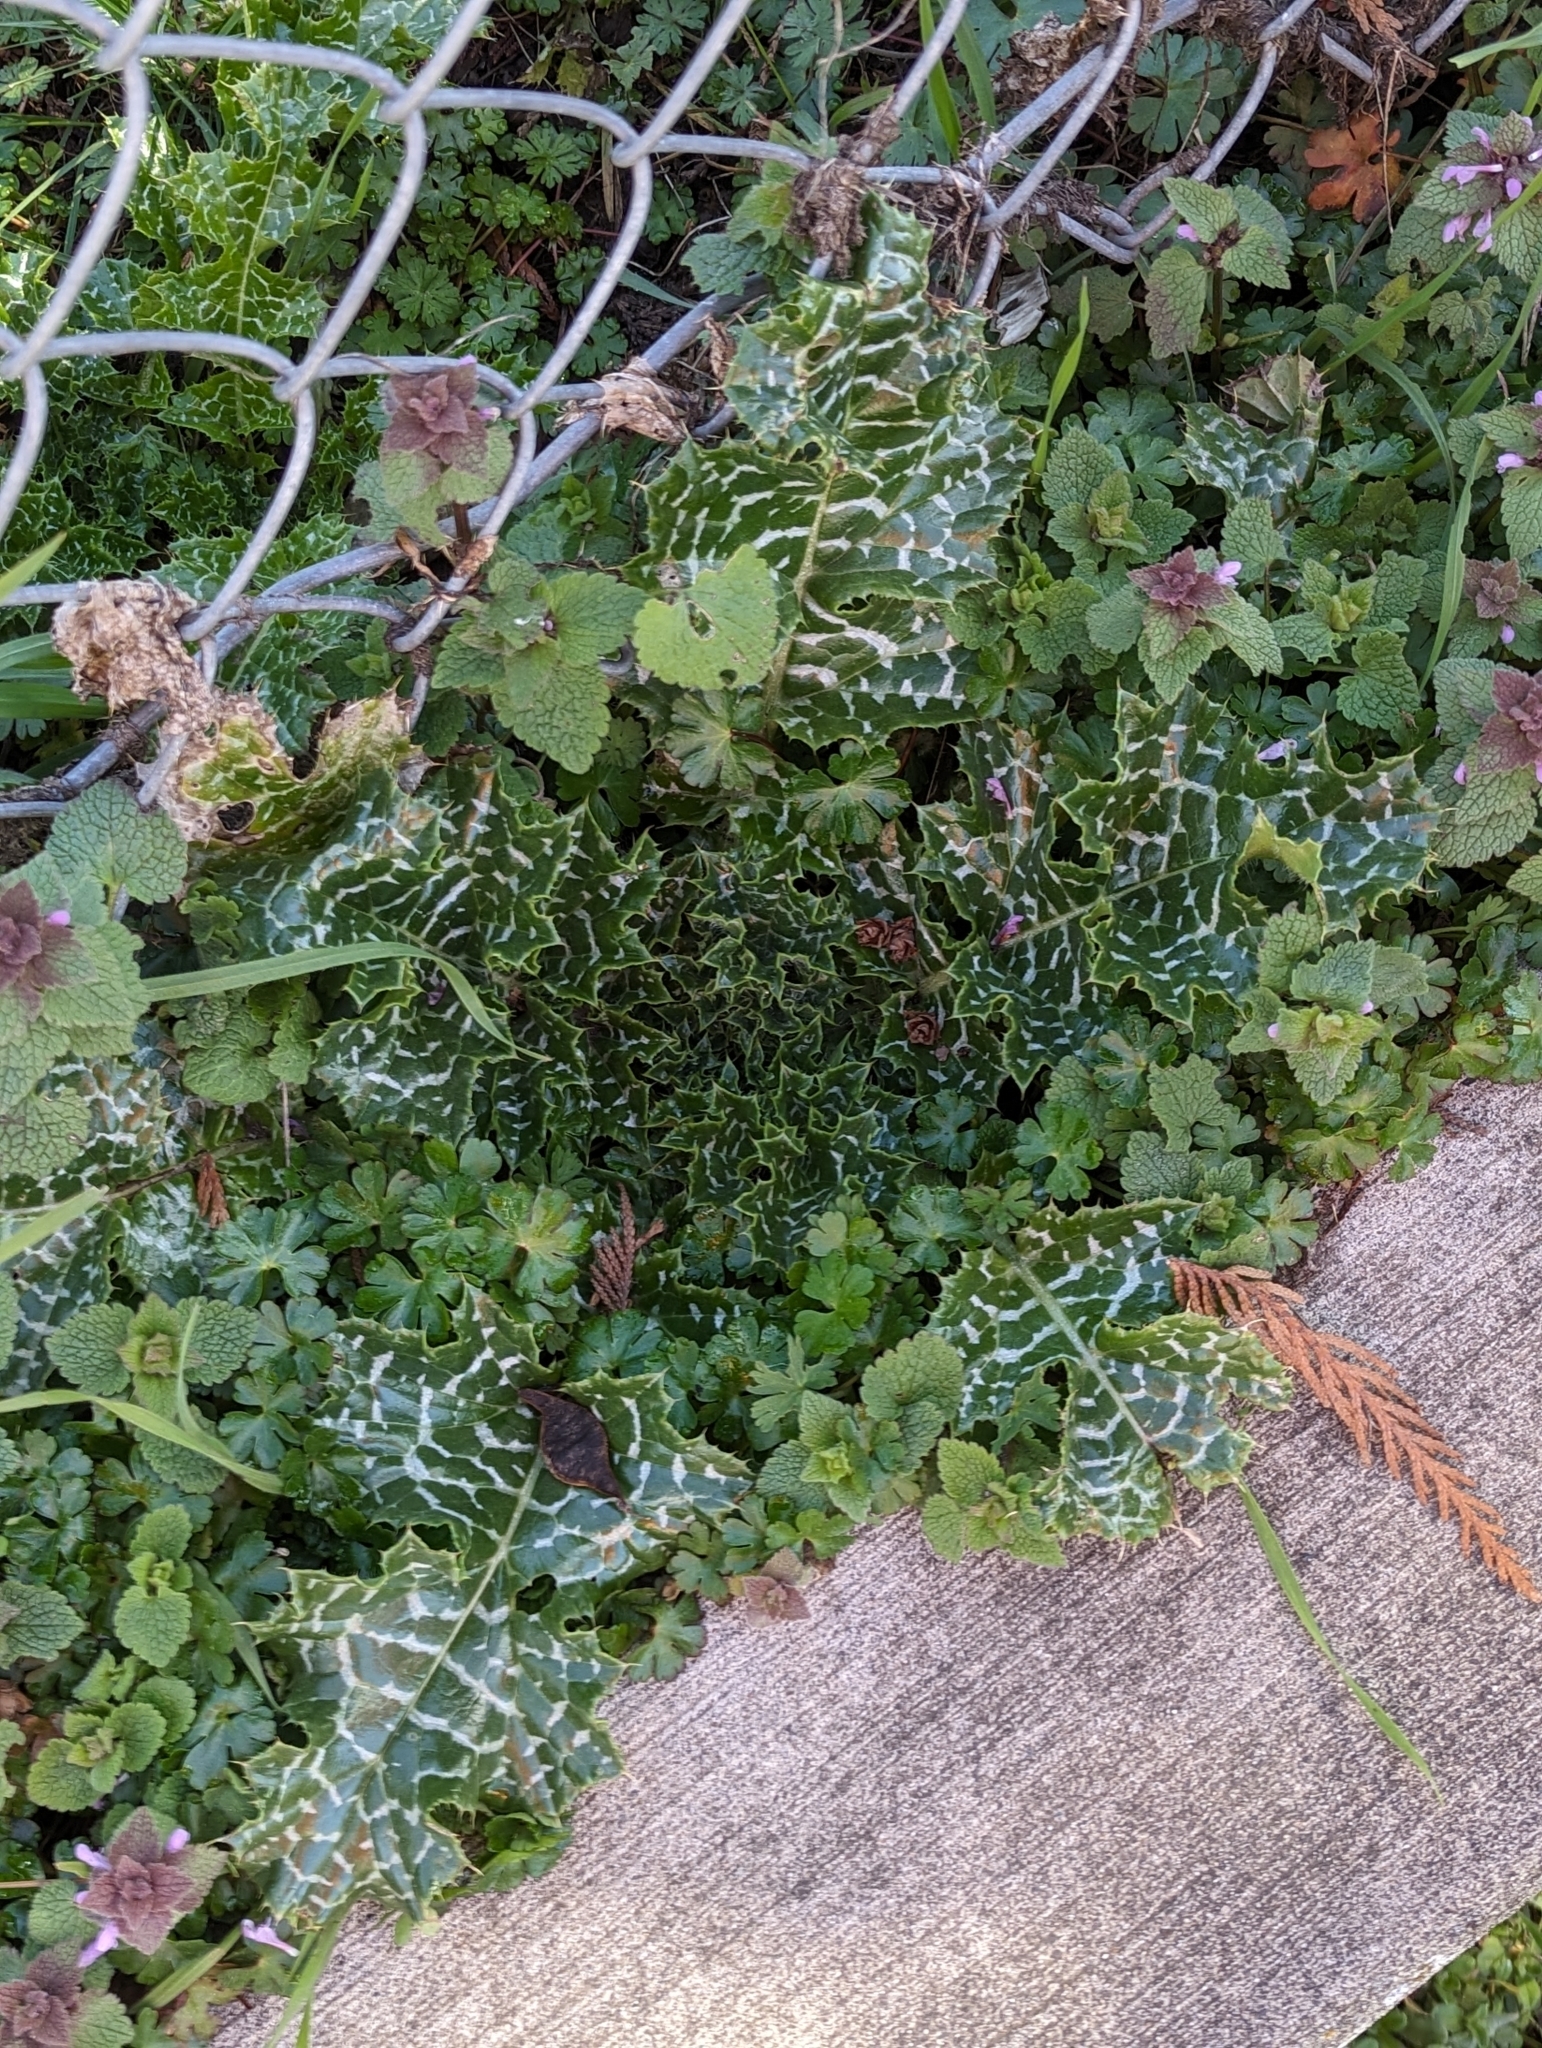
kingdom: Plantae
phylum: Tracheophyta
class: Magnoliopsida
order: Asterales
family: Asteraceae
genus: Silybum
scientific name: Silybum marianum
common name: Milk thistle
